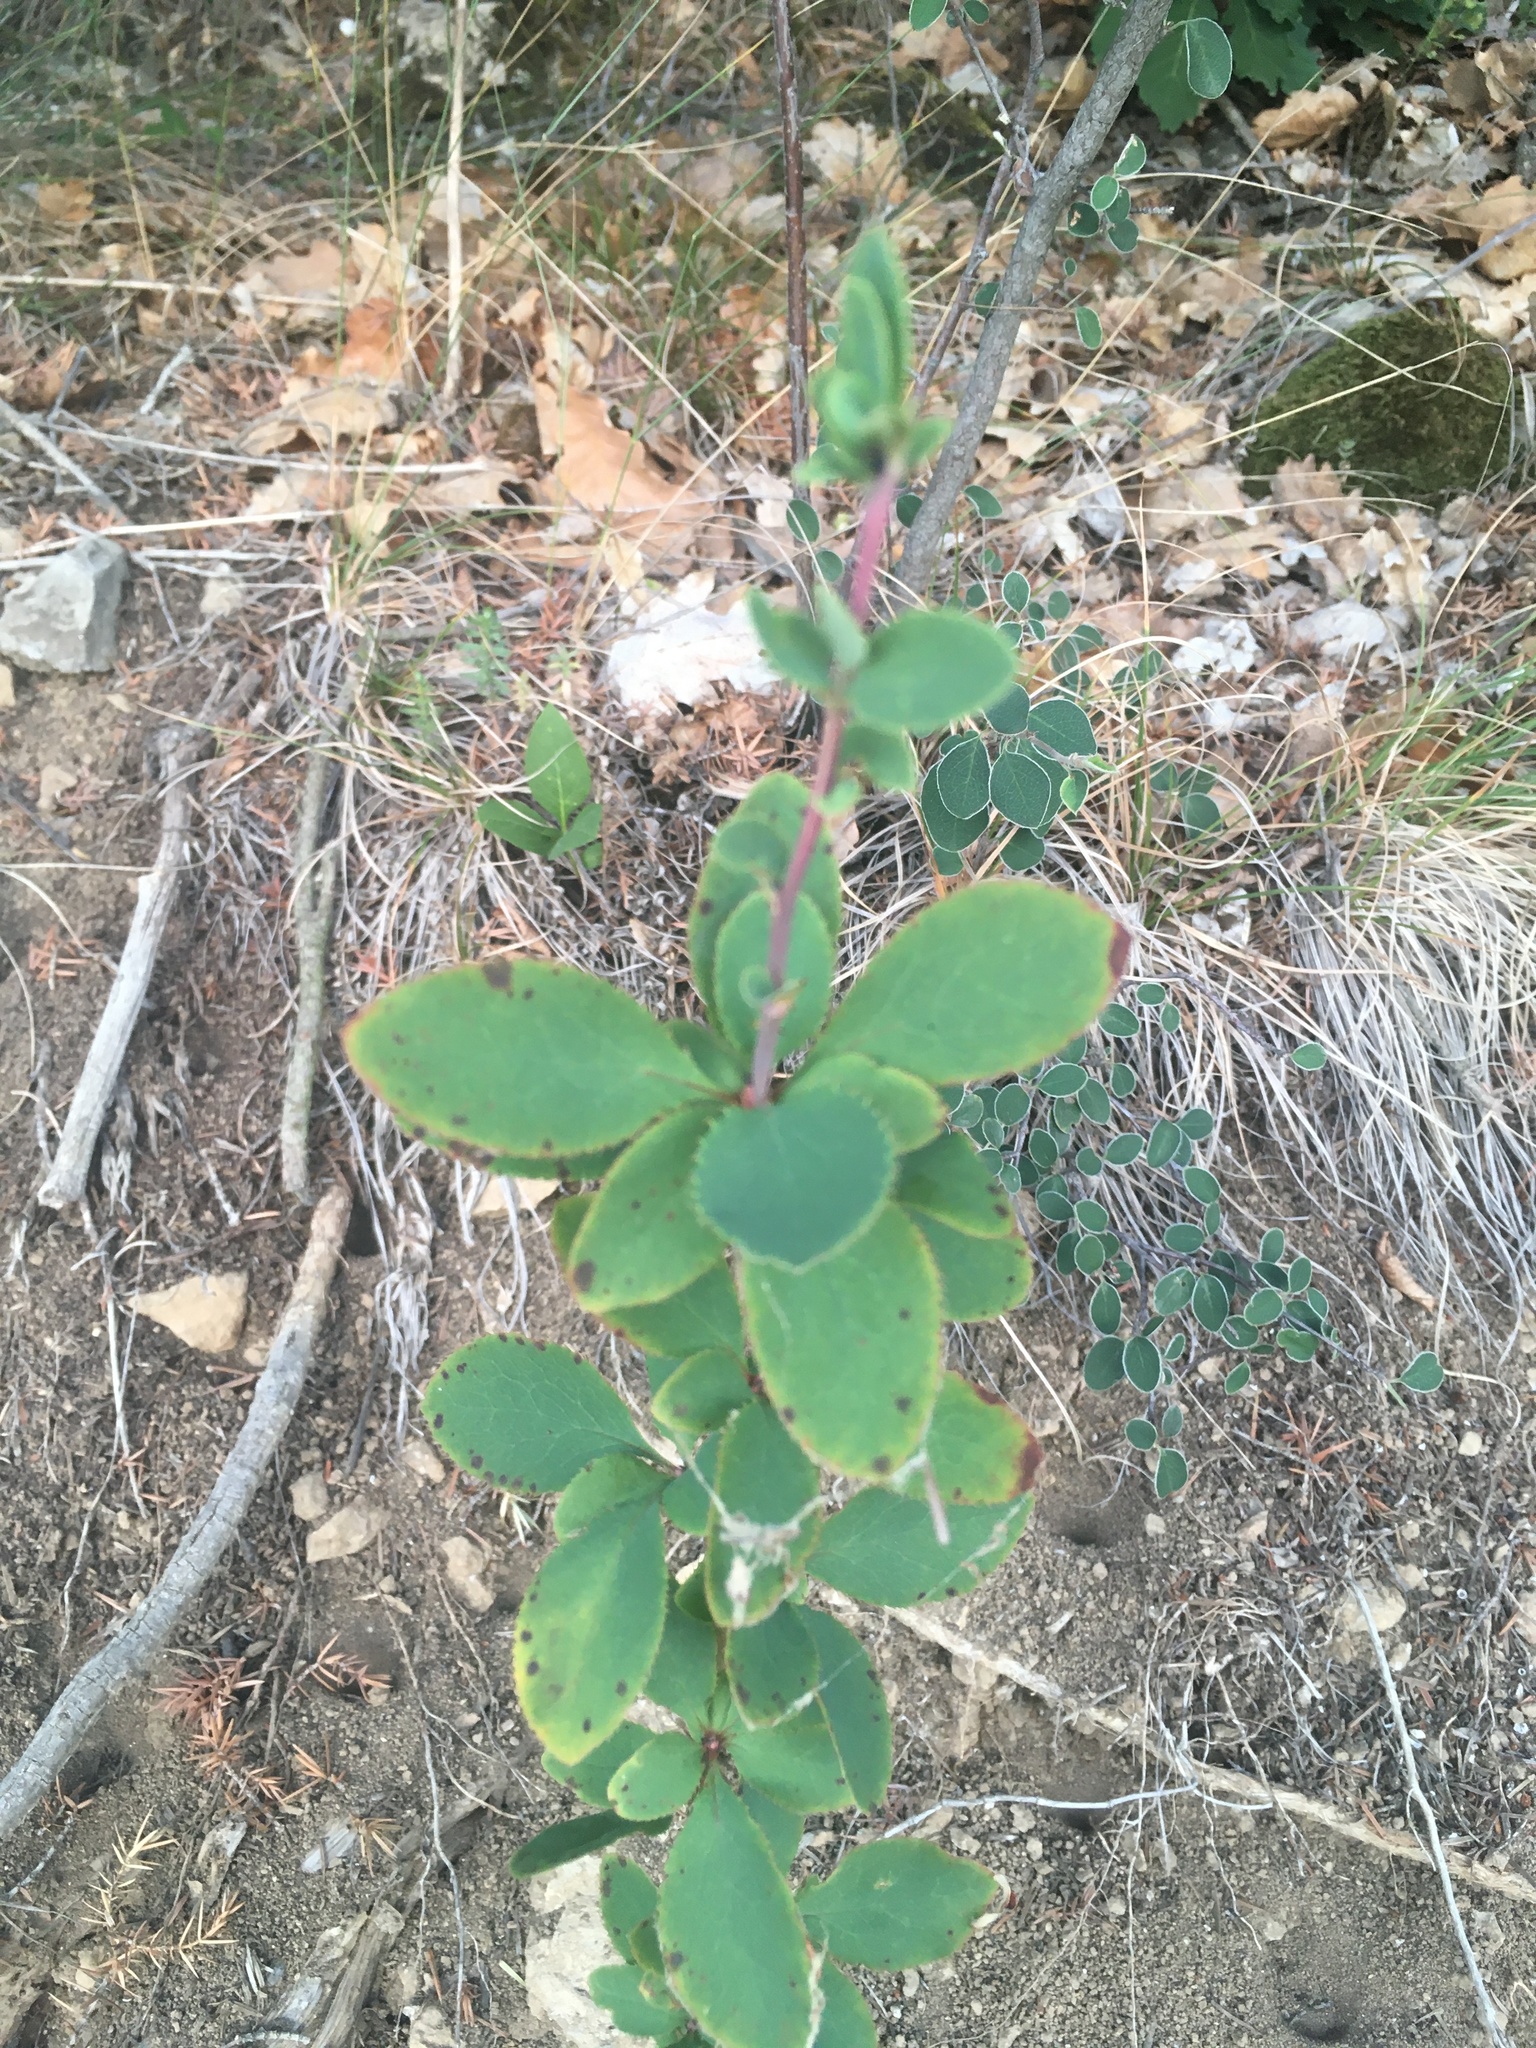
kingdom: Plantae
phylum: Tracheophyta
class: Magnoliopsida
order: Ranunculales
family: Berberidaceae
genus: Berberis
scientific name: Berberis vulgaris
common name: Barberry
